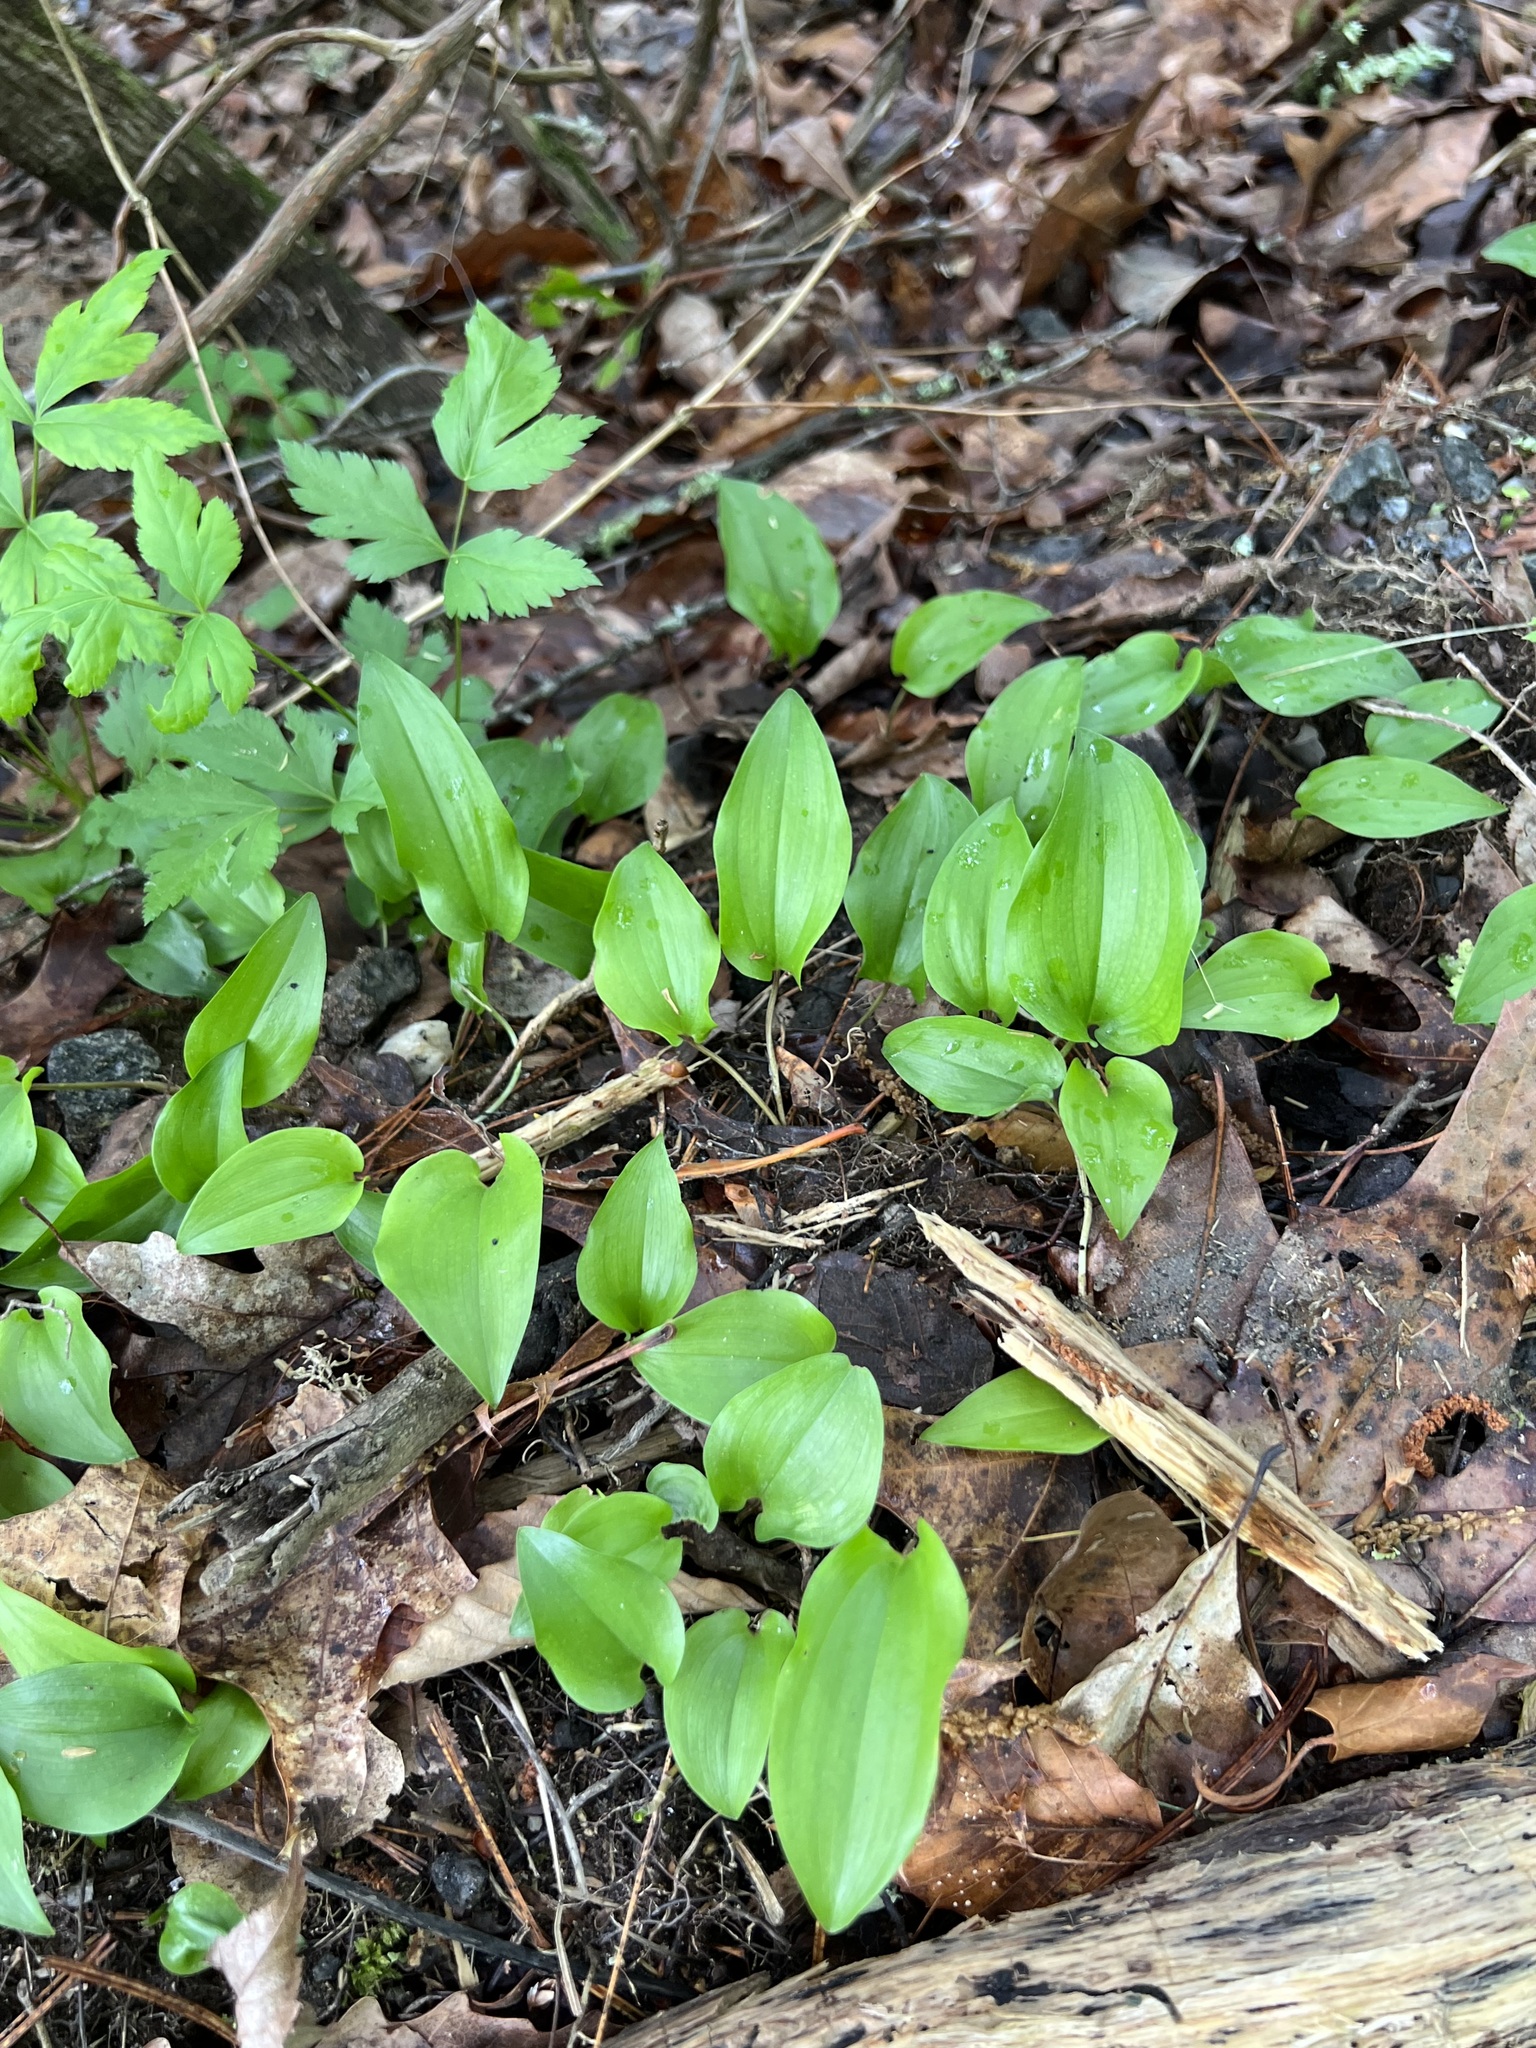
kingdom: Plantae
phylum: Tracheophyta
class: Liliopsida
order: Asparagales
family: Asparagaceae
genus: Maianthemum
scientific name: Maianthemum canadense
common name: False lily-of-the-valley
